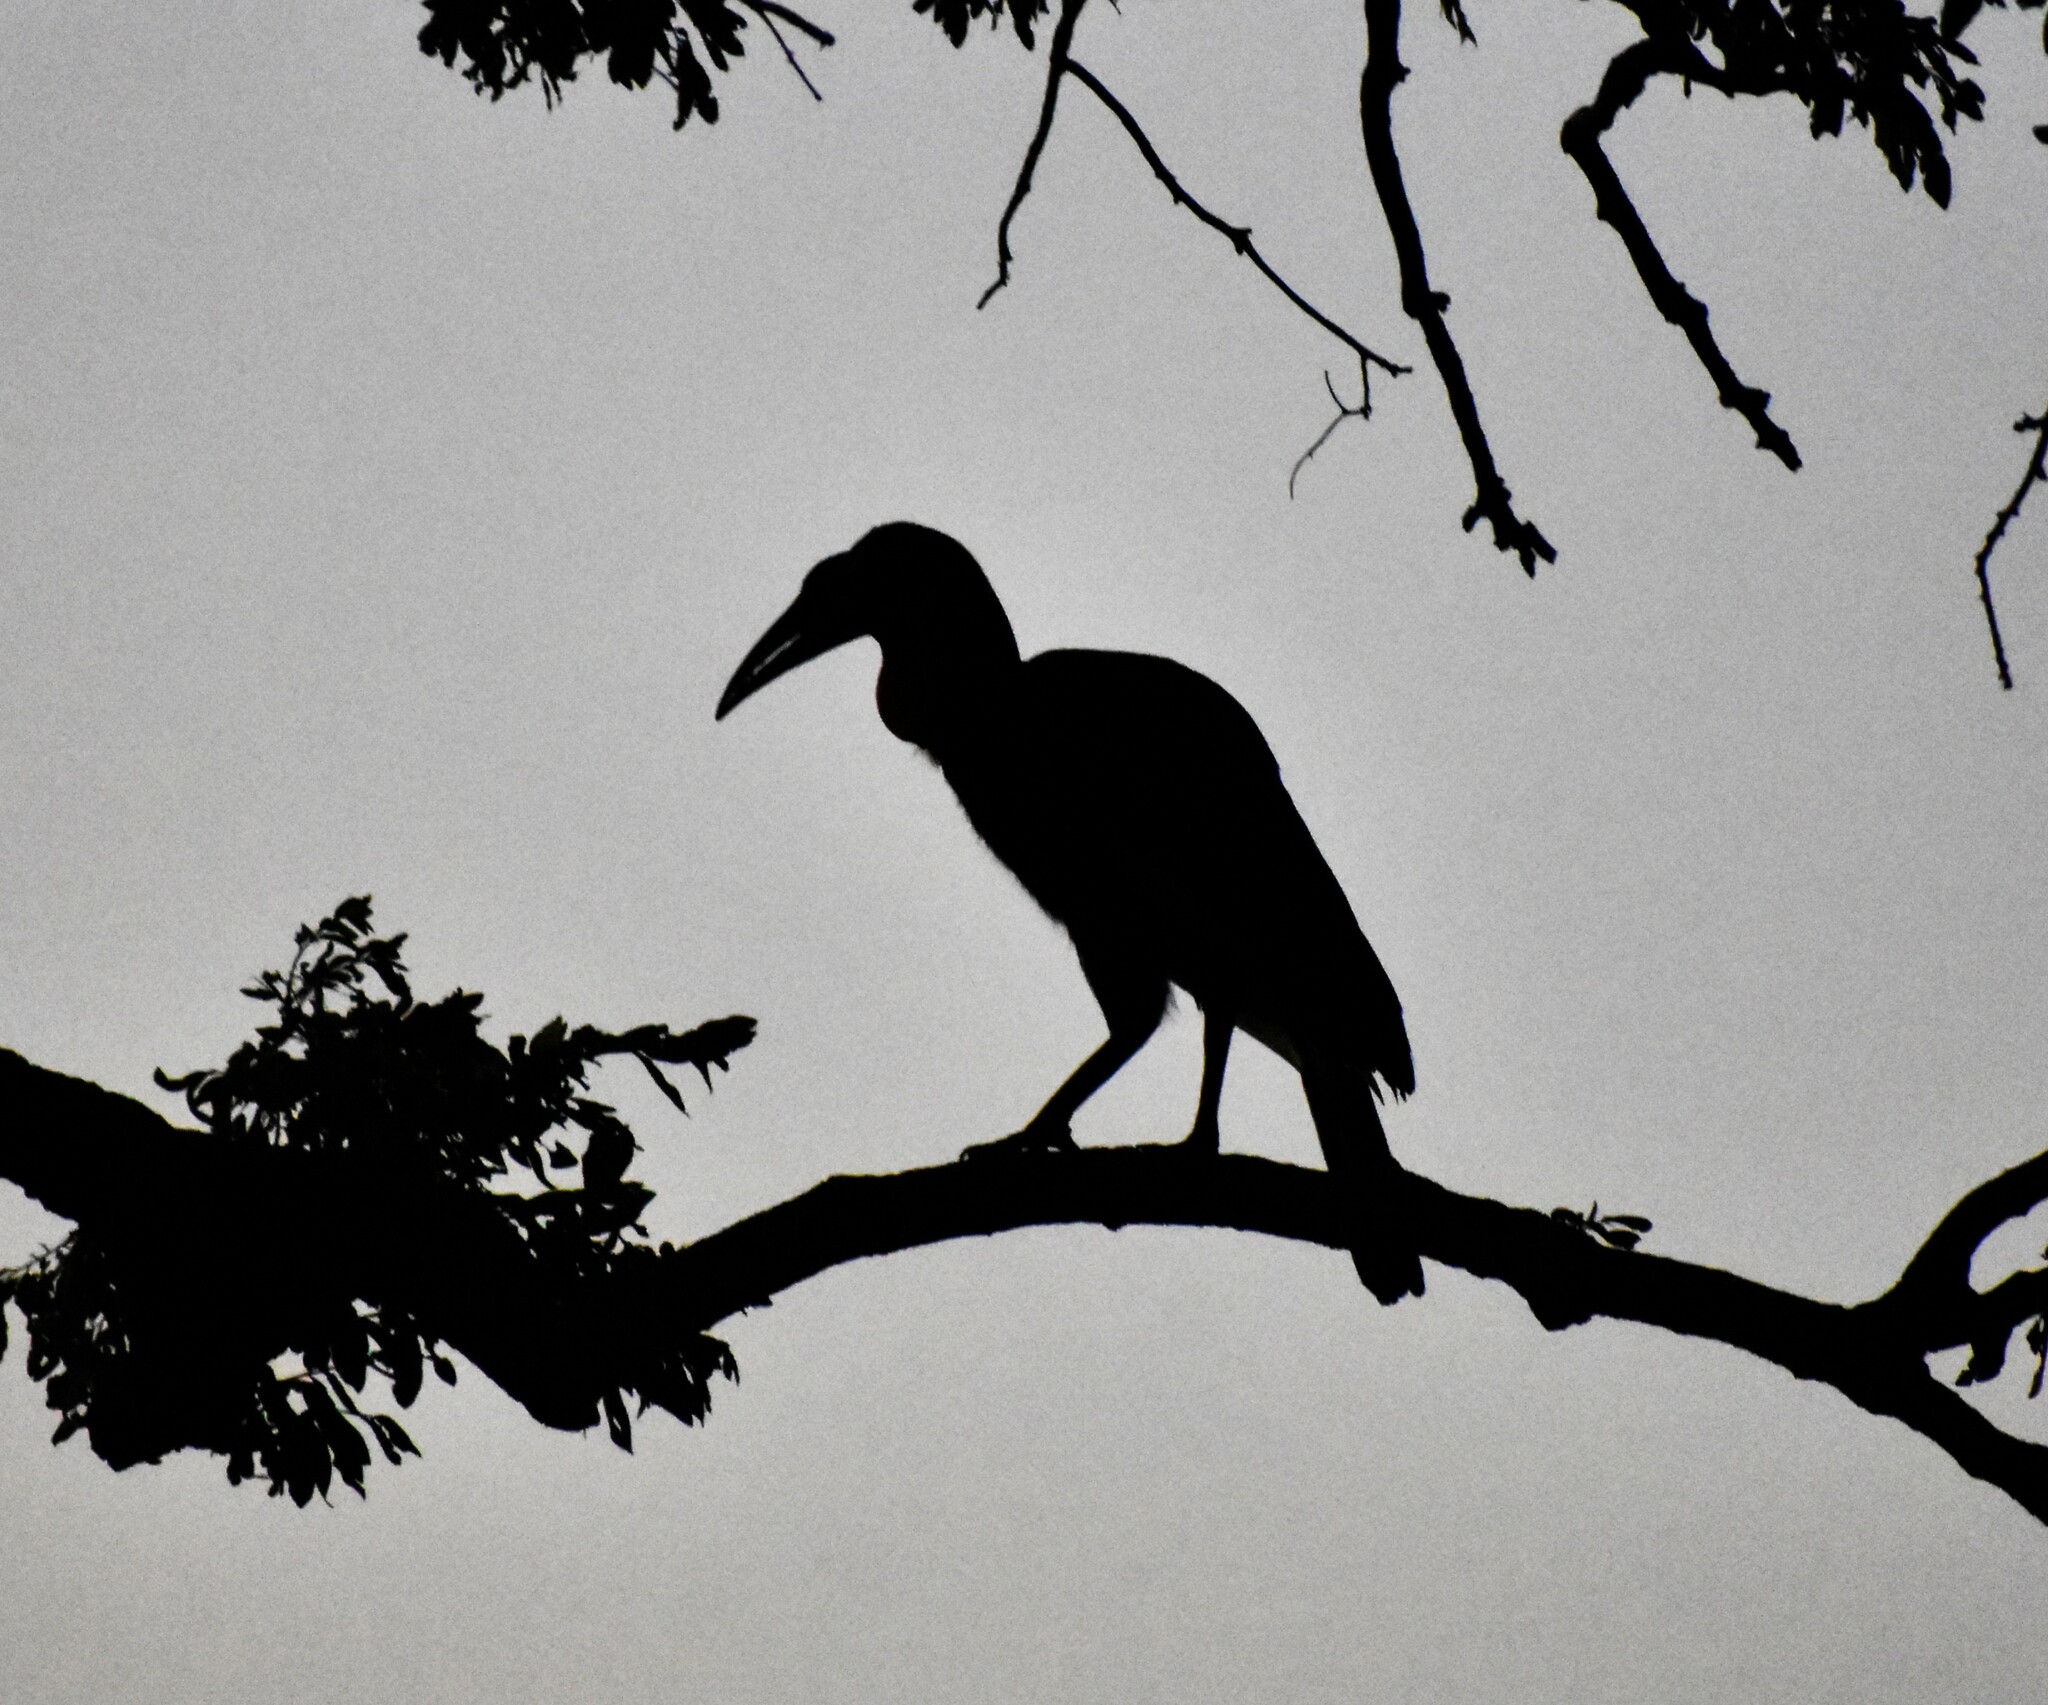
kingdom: Animalia
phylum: Chordata
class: Aves
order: Bucerotiformes
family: Bucorvidae
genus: Bucorvus
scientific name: Bucorvus leadbeateri
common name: Southern ground-hornbill
